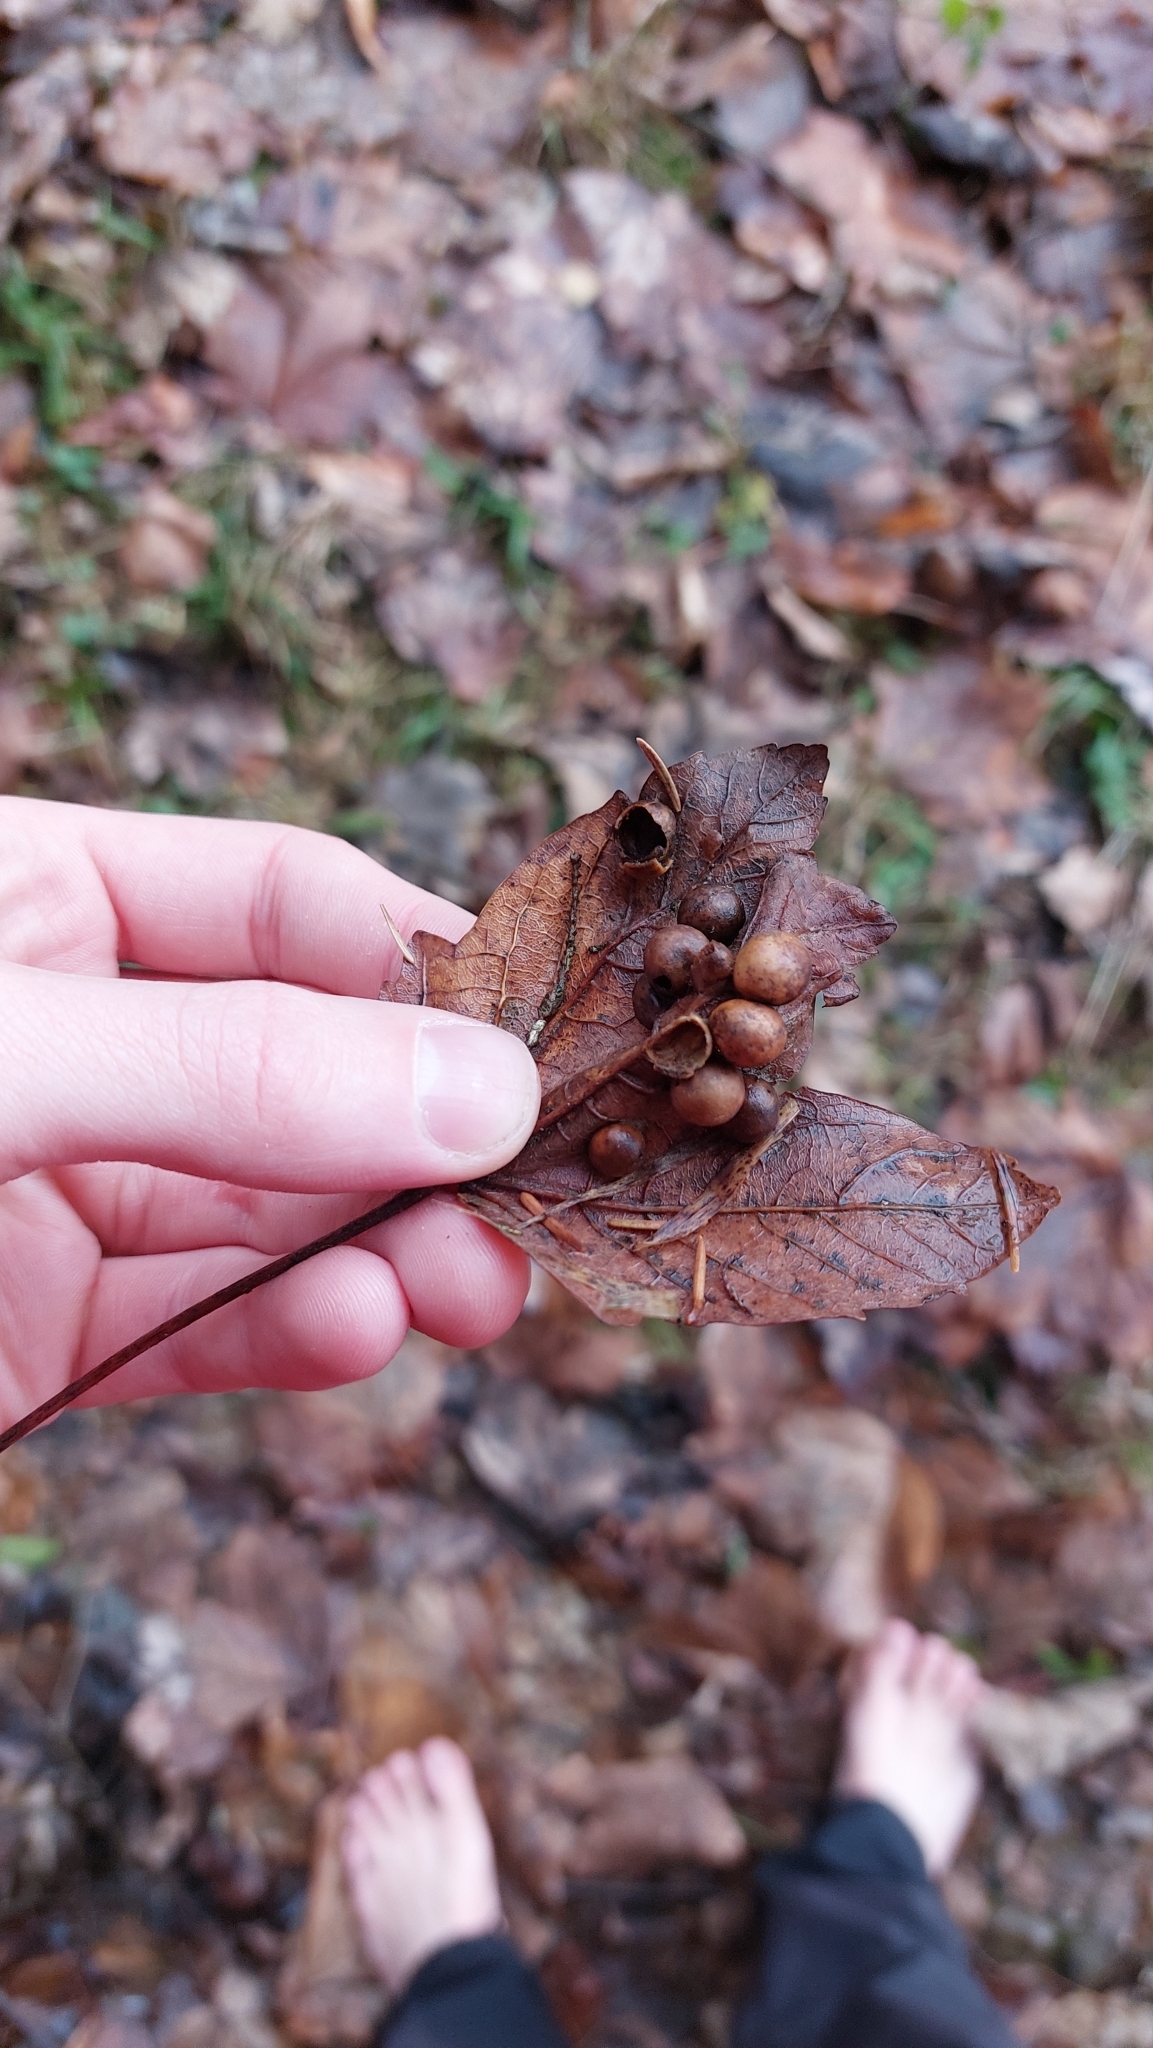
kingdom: Animalia
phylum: Arthropoda
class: Insecta
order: Hymenoptera
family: Cynipidae
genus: Pediaspis
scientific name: Pediaspis aceris
